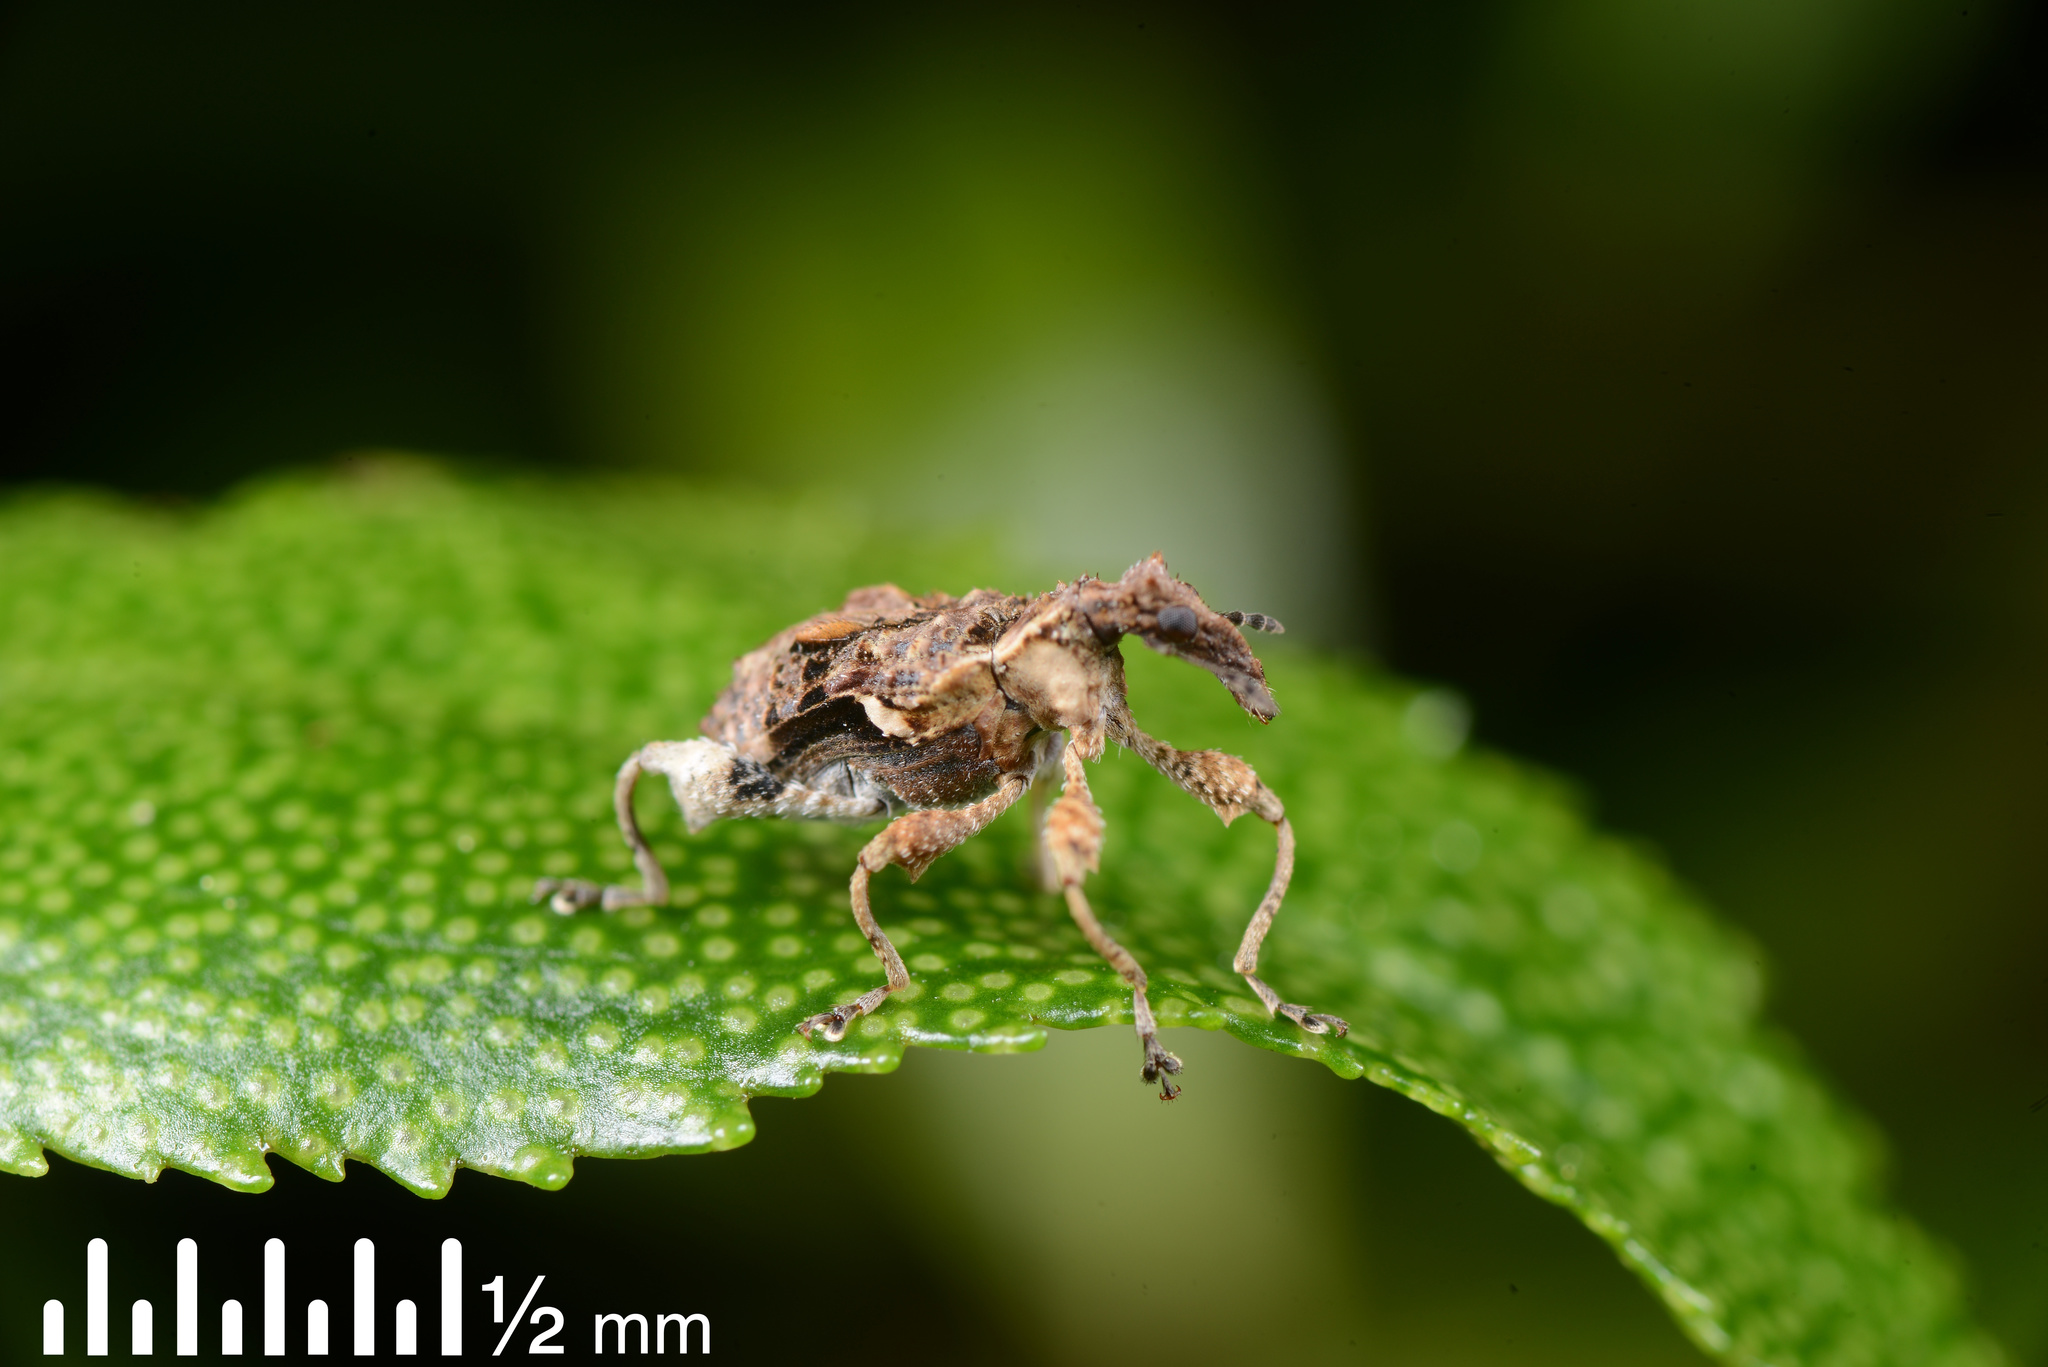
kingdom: Animalia
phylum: Arthropoda
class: Insecta
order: Coleoptera
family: Curculionidae
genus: Stephanorhynchus
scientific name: Stephanorhynchus curvipes
